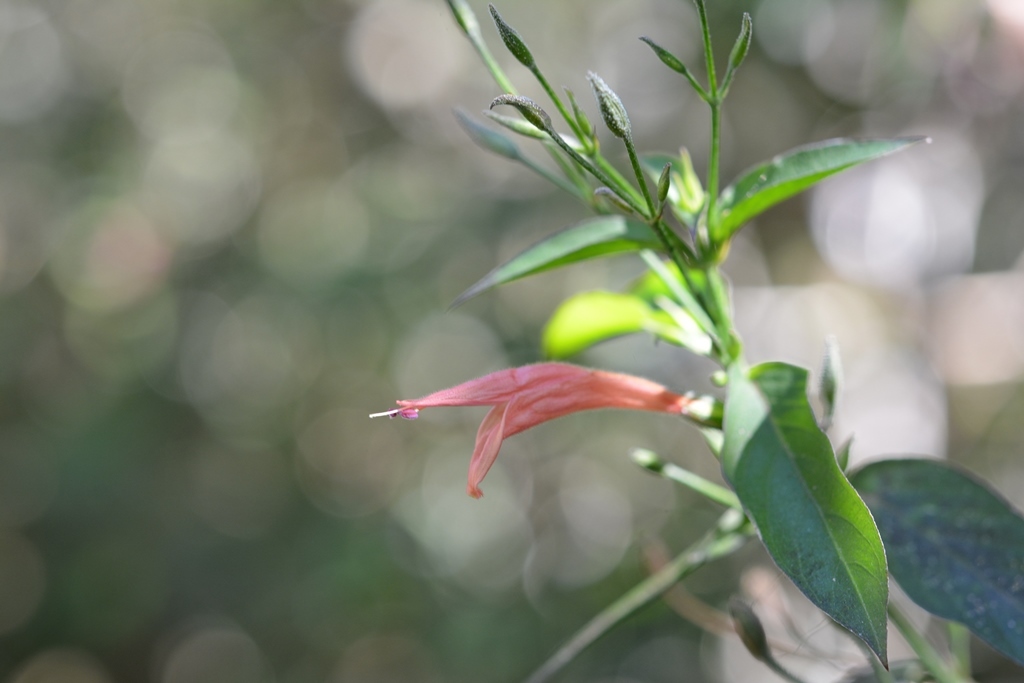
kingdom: Plantae
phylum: Tracheophyta
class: Magnoliopsida
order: Lamiales
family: Acanthaceae
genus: Dicliptera
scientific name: Dicliptera sciadephora
